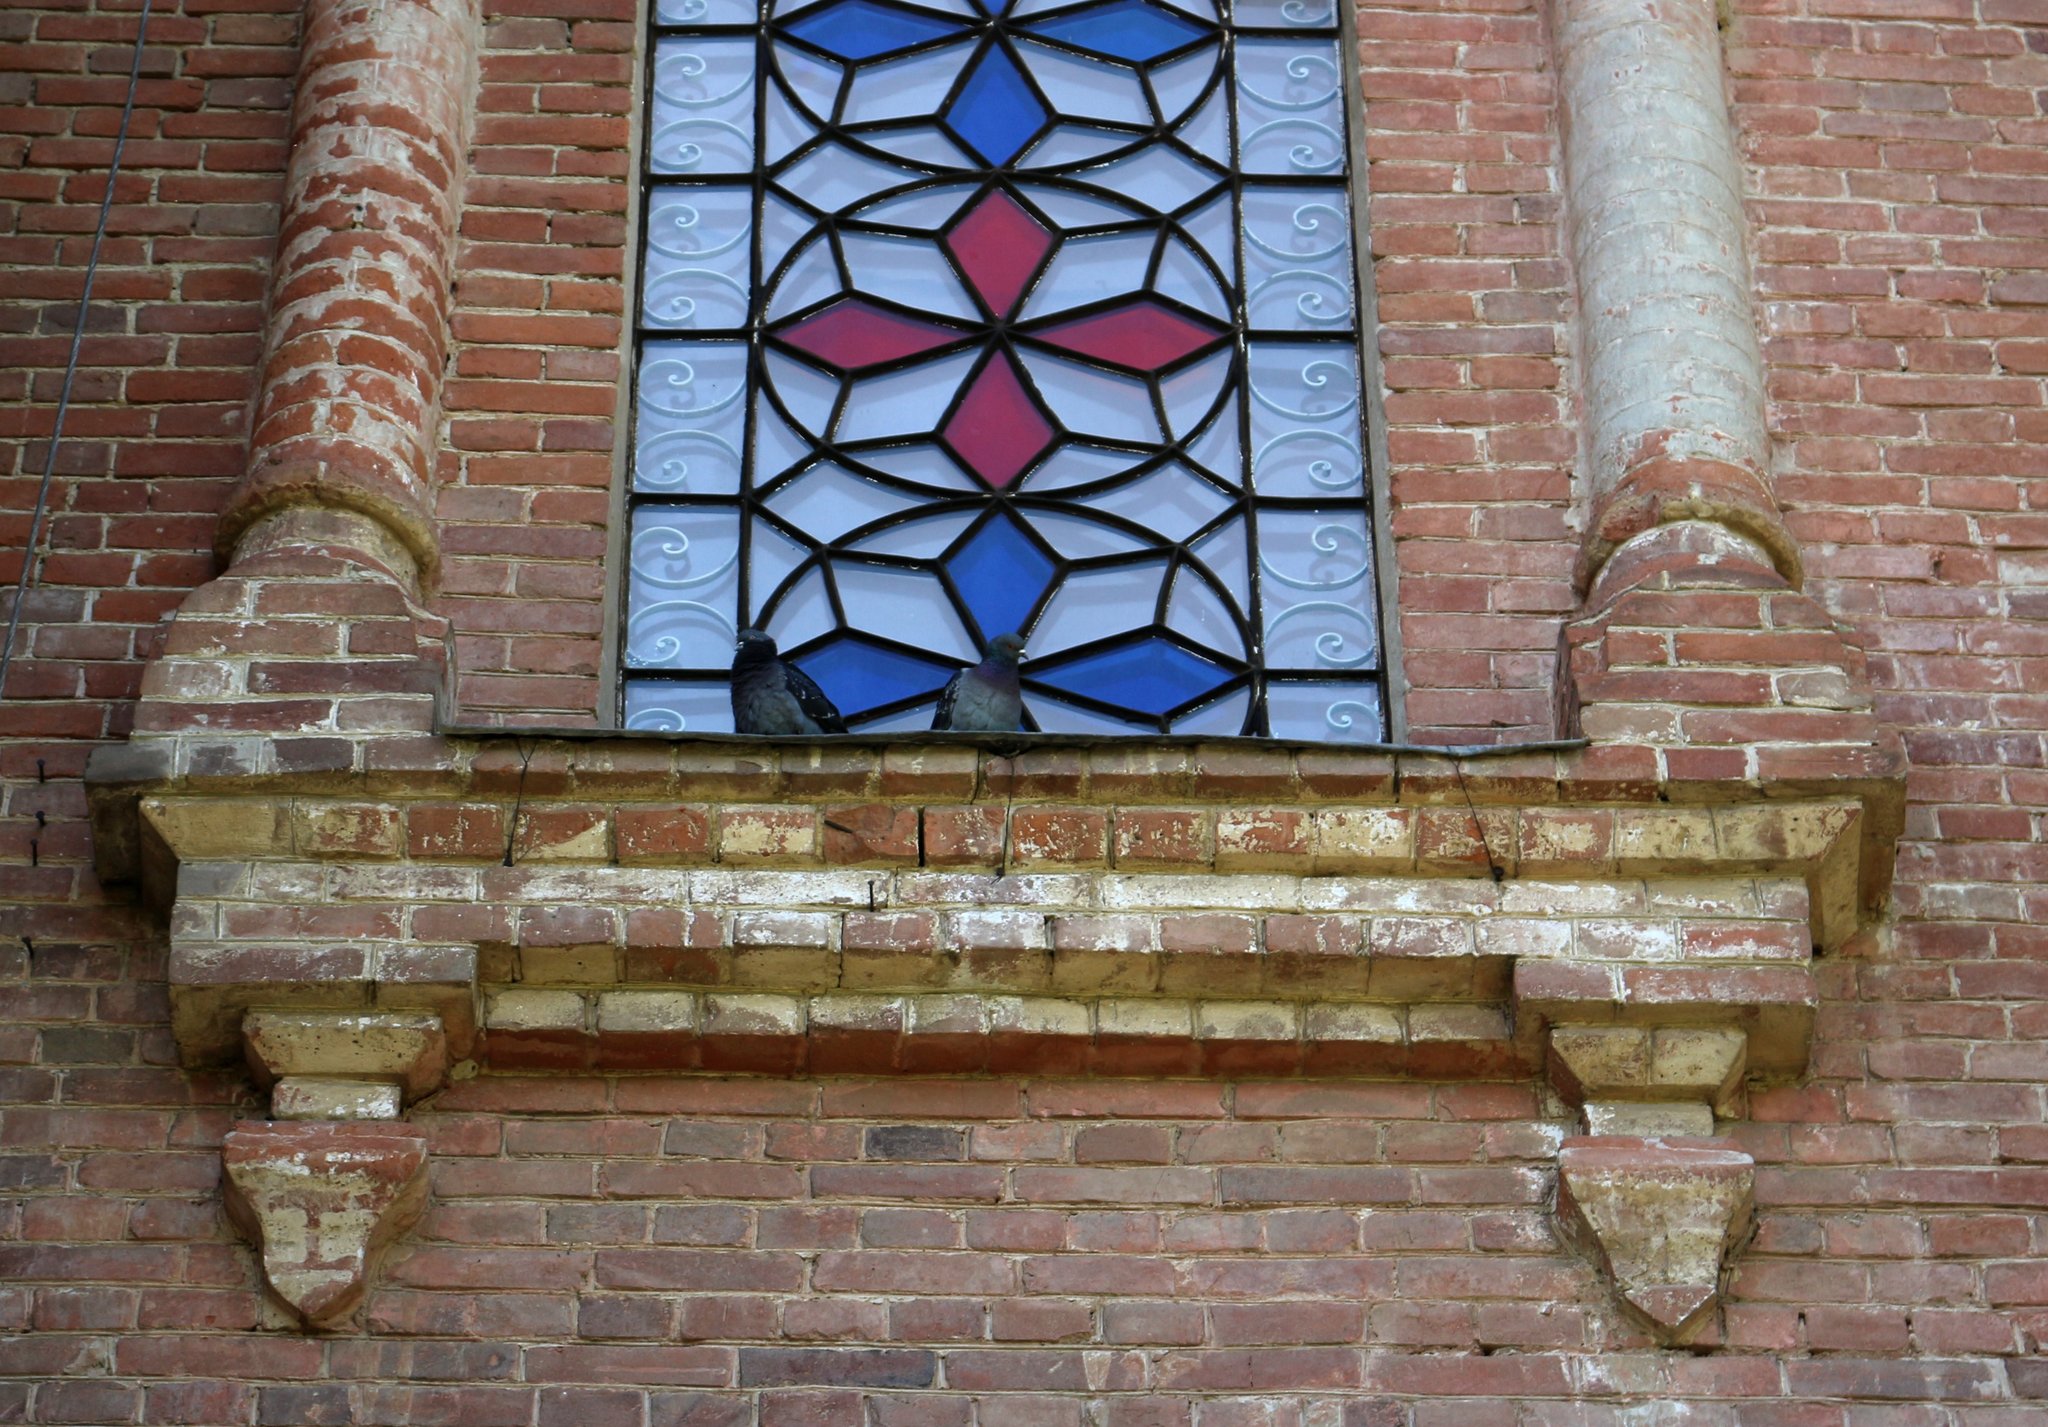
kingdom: Animalia
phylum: Chordata
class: Aves
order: Columbiformes
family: Columbidae
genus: Columba
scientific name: Columba livia
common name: Rock pigeon
